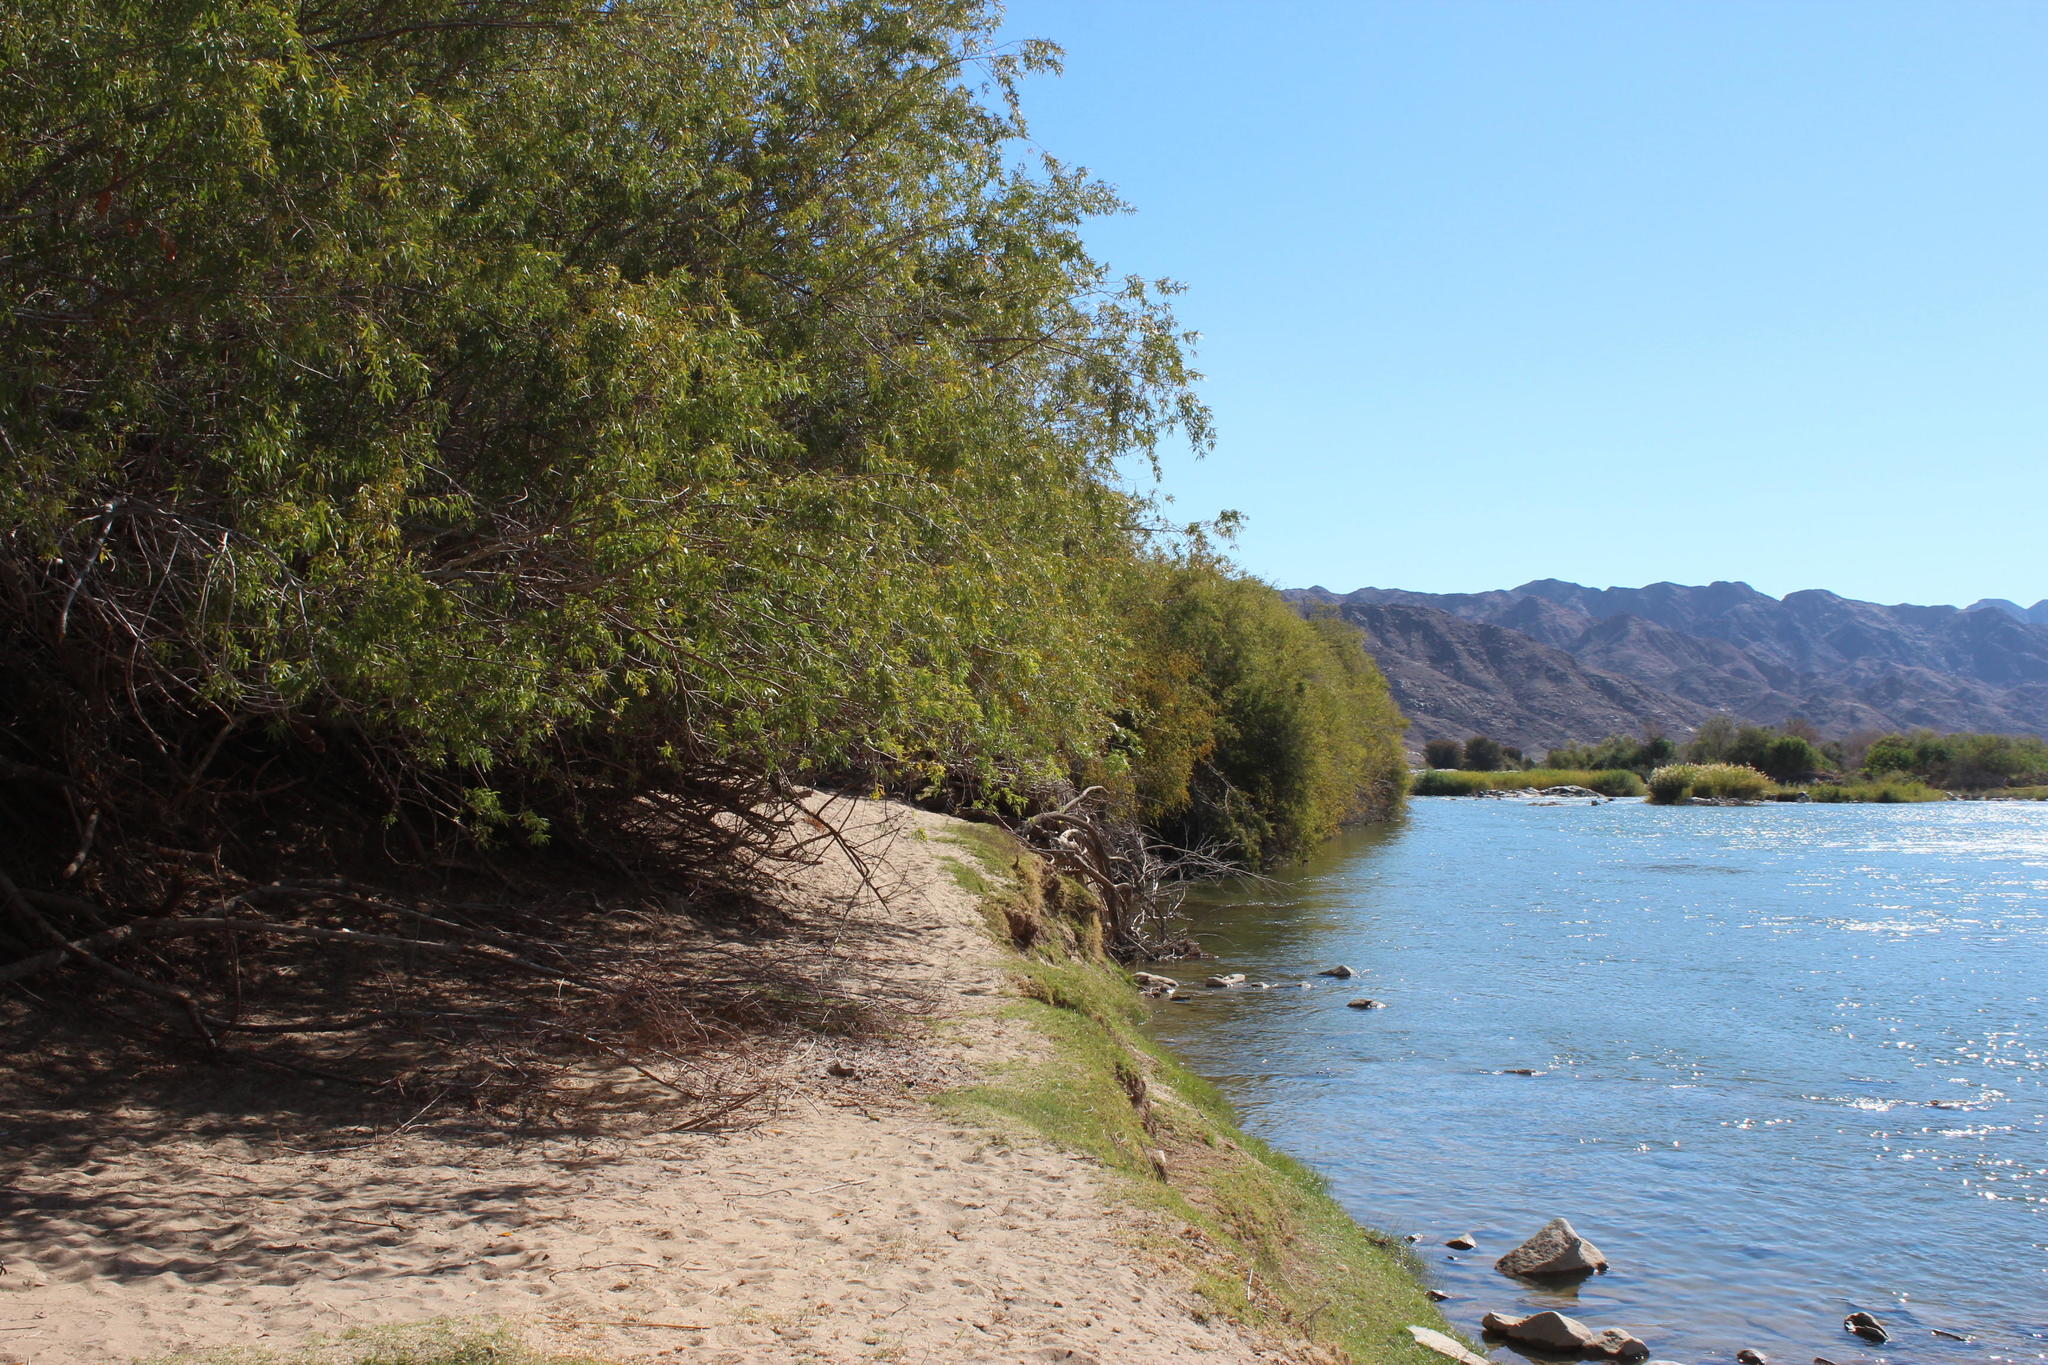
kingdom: Plantae
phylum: Tracheophyta
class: Magnoliopsida
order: Sapindales
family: Anacardiaceae
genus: Searsia
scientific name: Searsia pendulina
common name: White karee
